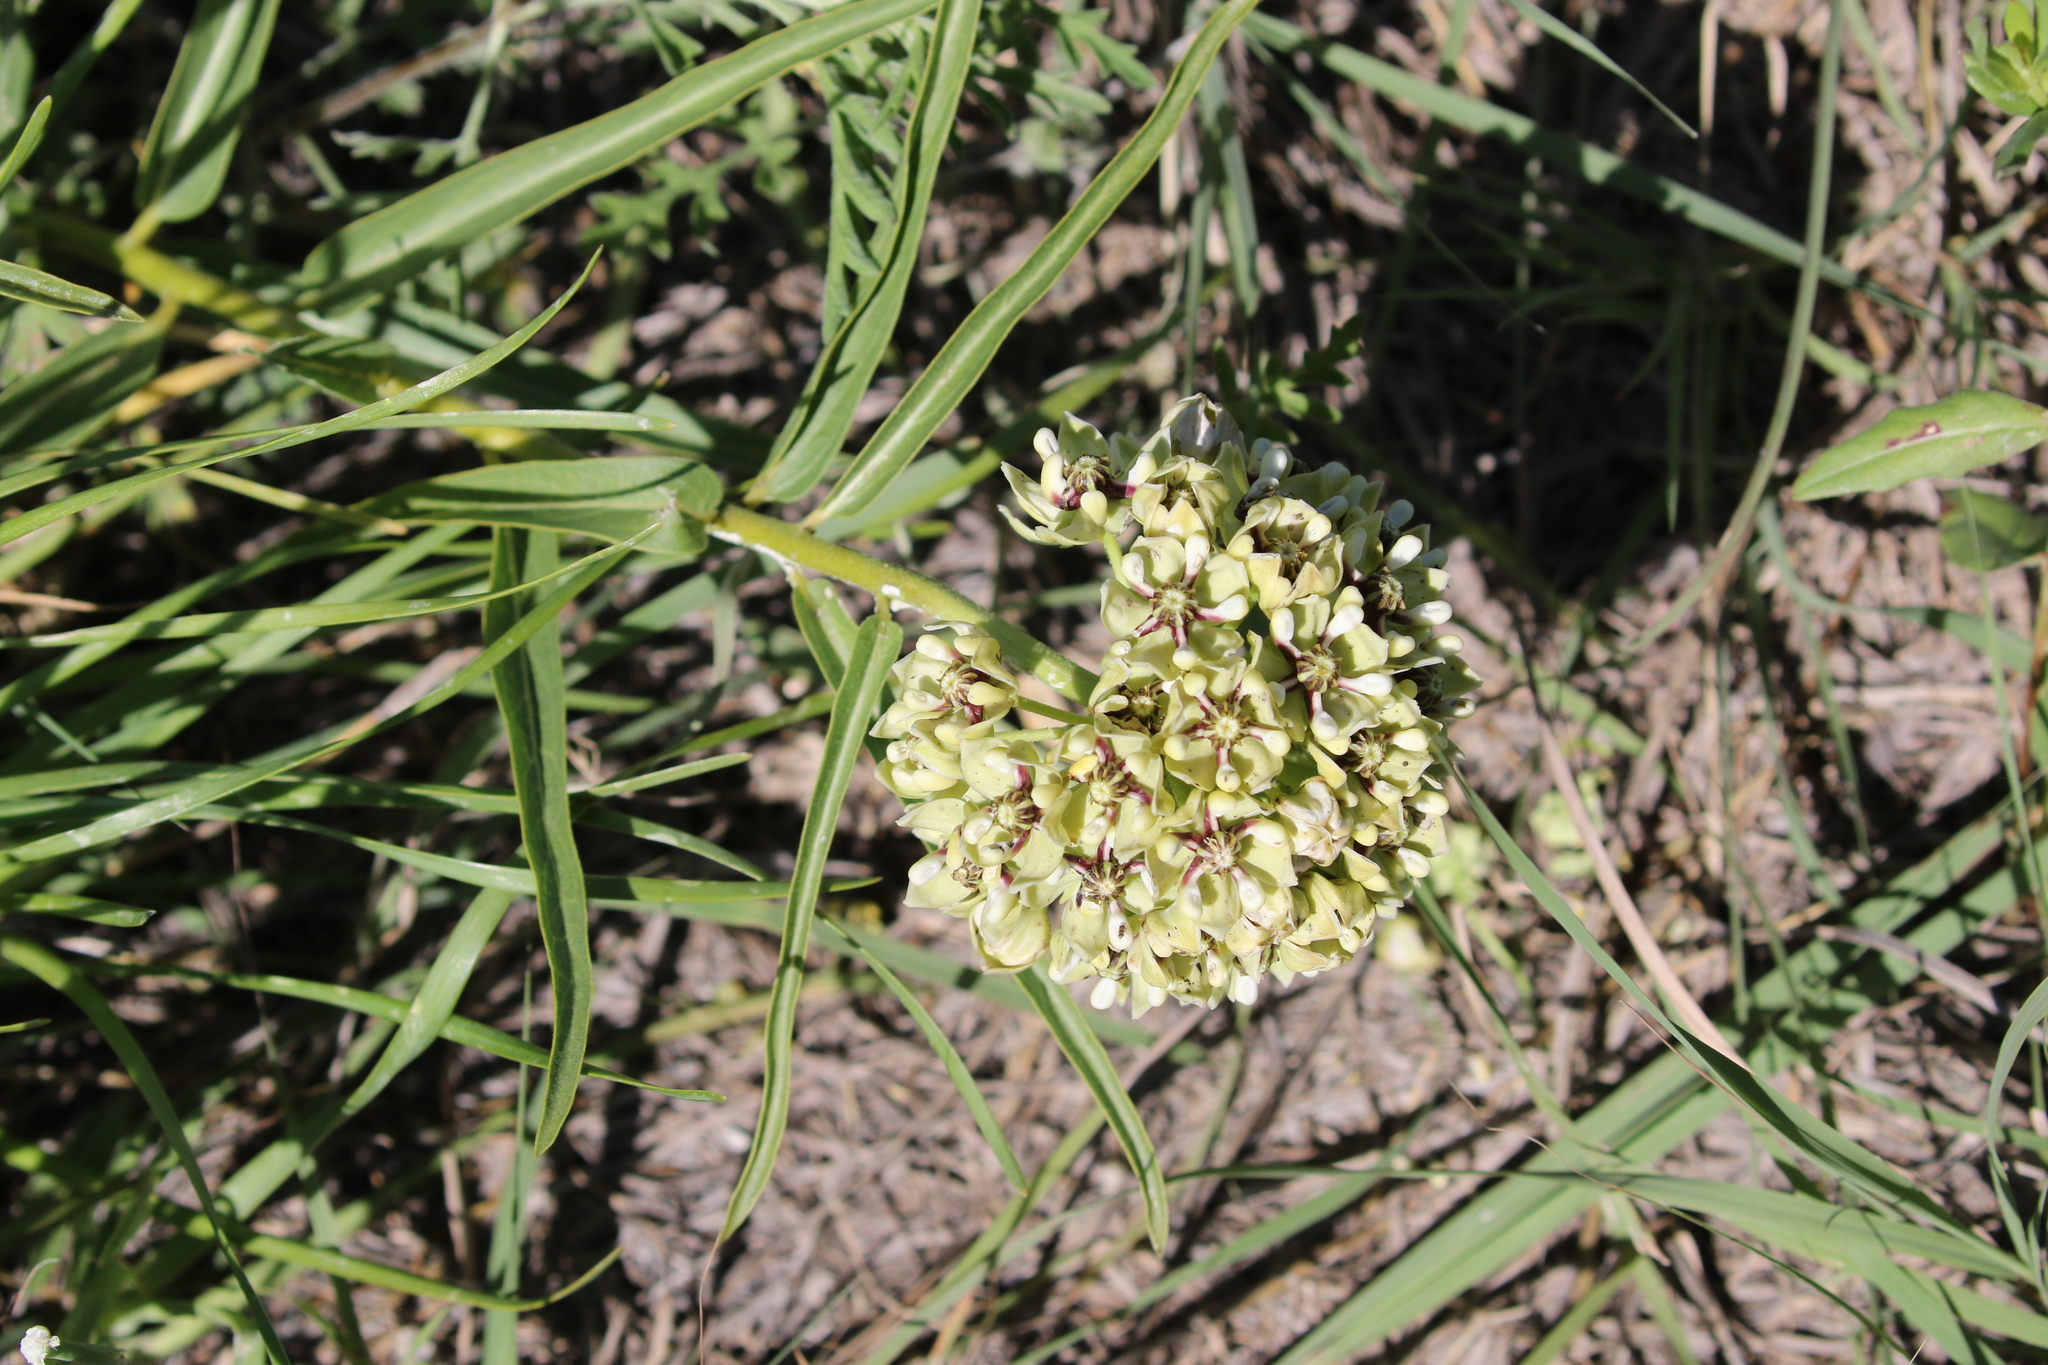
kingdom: Plantae
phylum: Tracheophyta
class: Magnoliopsida
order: Gentianales
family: Apocynaceae
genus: Asclepias
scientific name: Asclepias asperula
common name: Antelope horns
